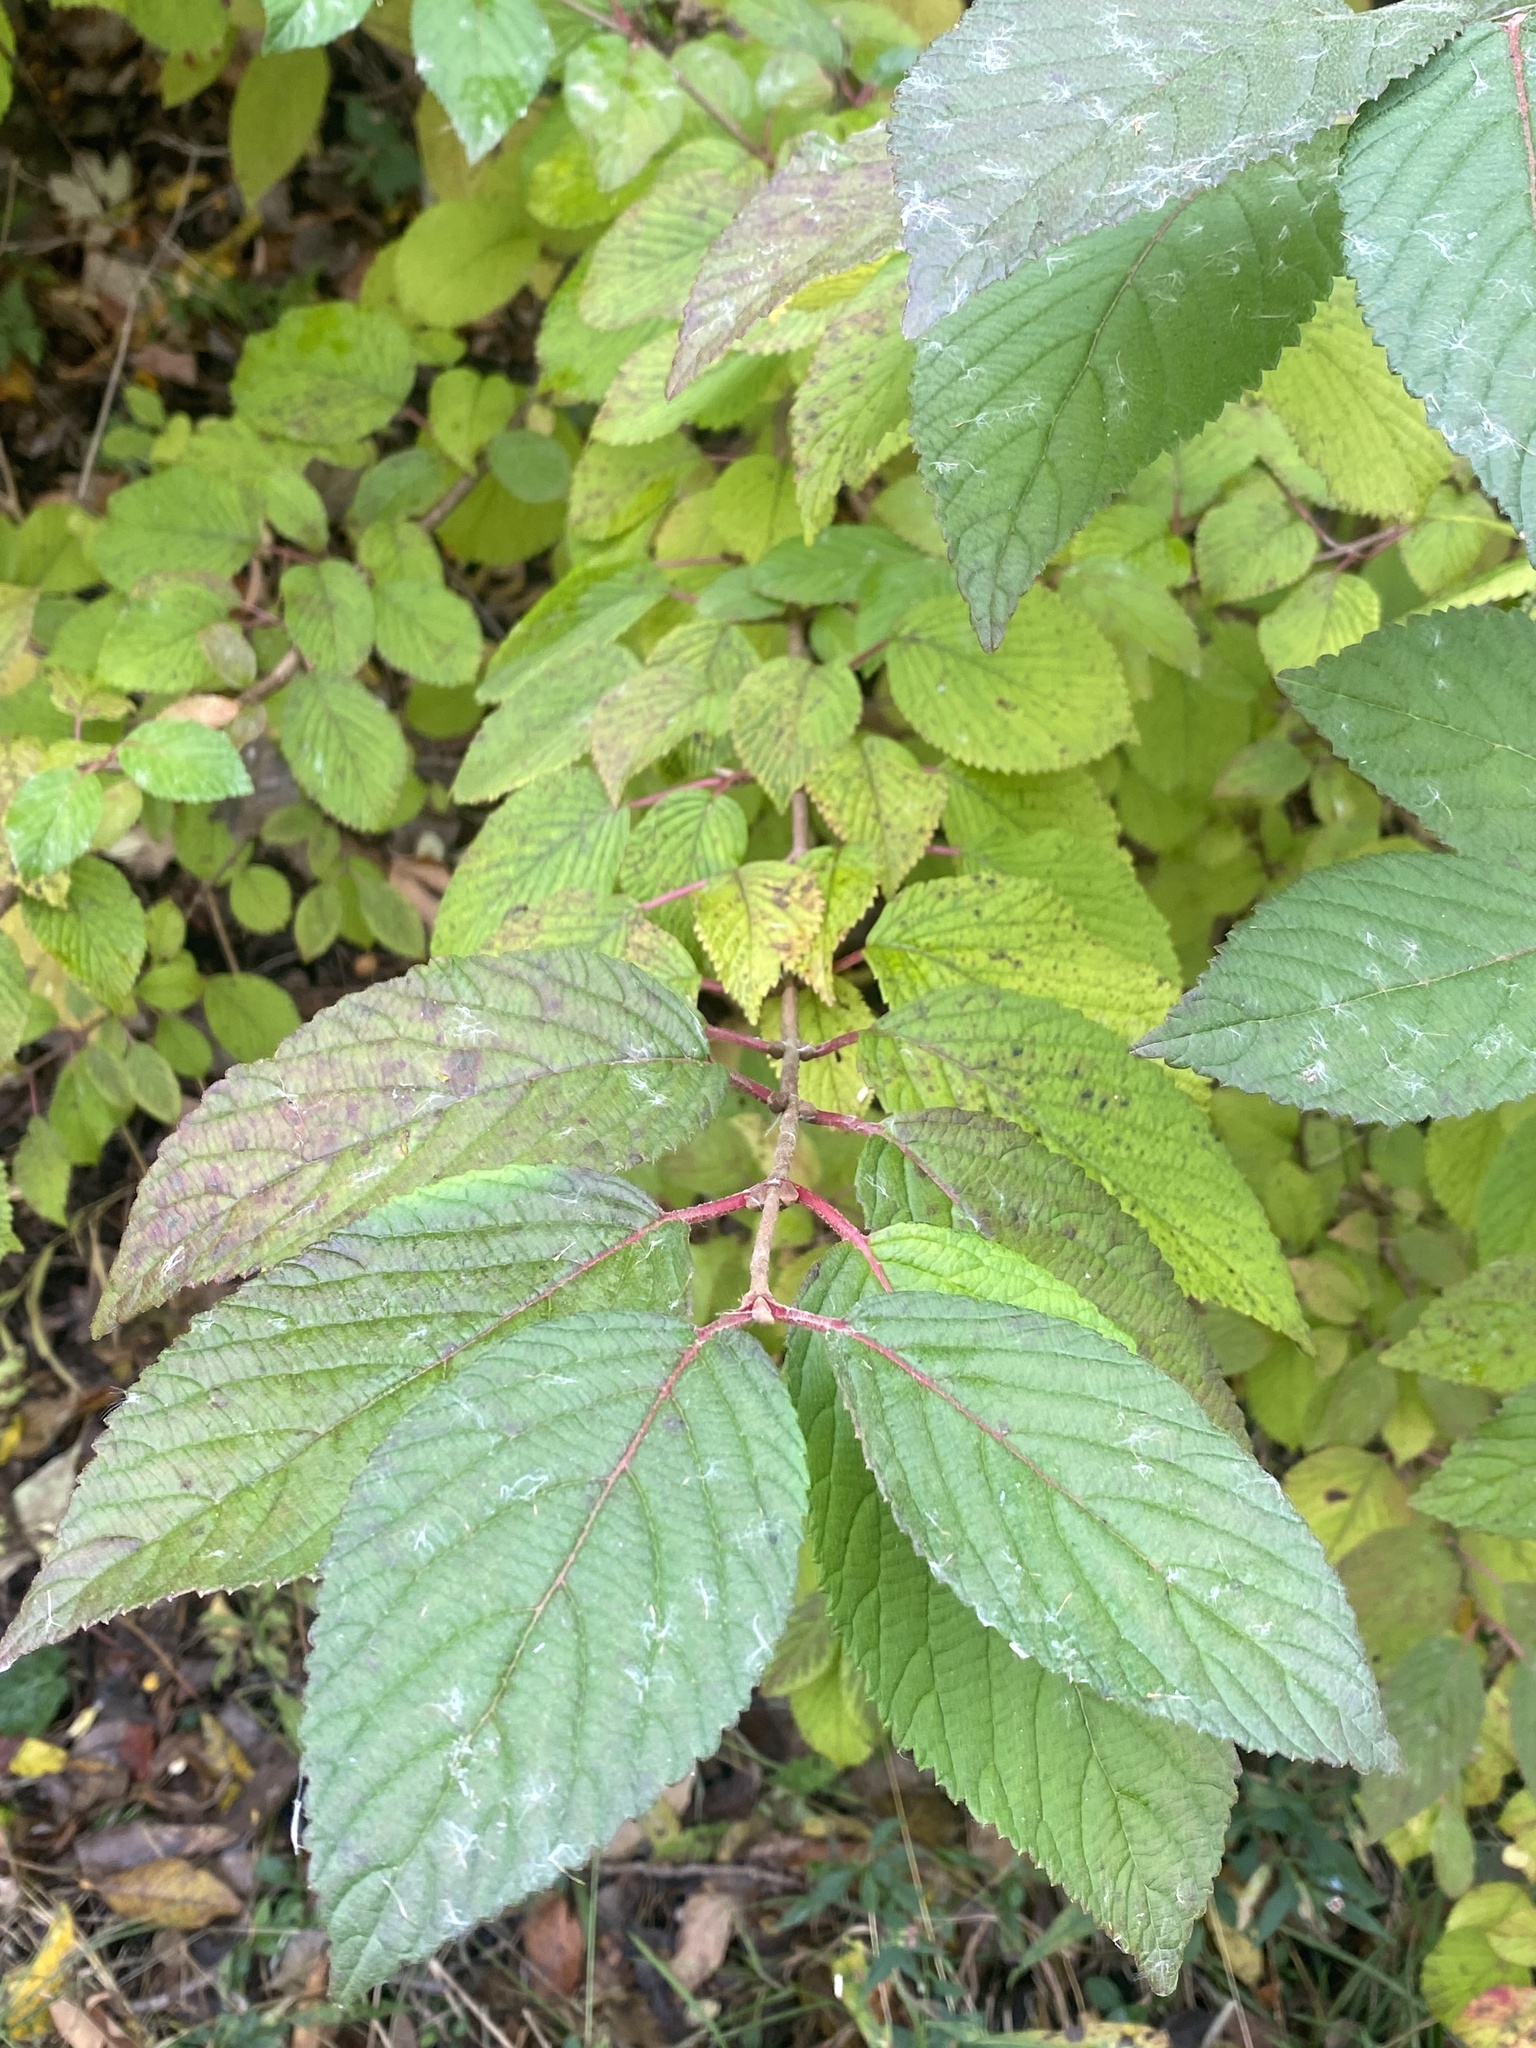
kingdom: Plantae
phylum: Tracheophyta
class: Magnoliopsida
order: Dipsacales
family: Viburnaceae
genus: Viburnum
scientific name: Viburnum plicatum
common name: Japanese snowball
